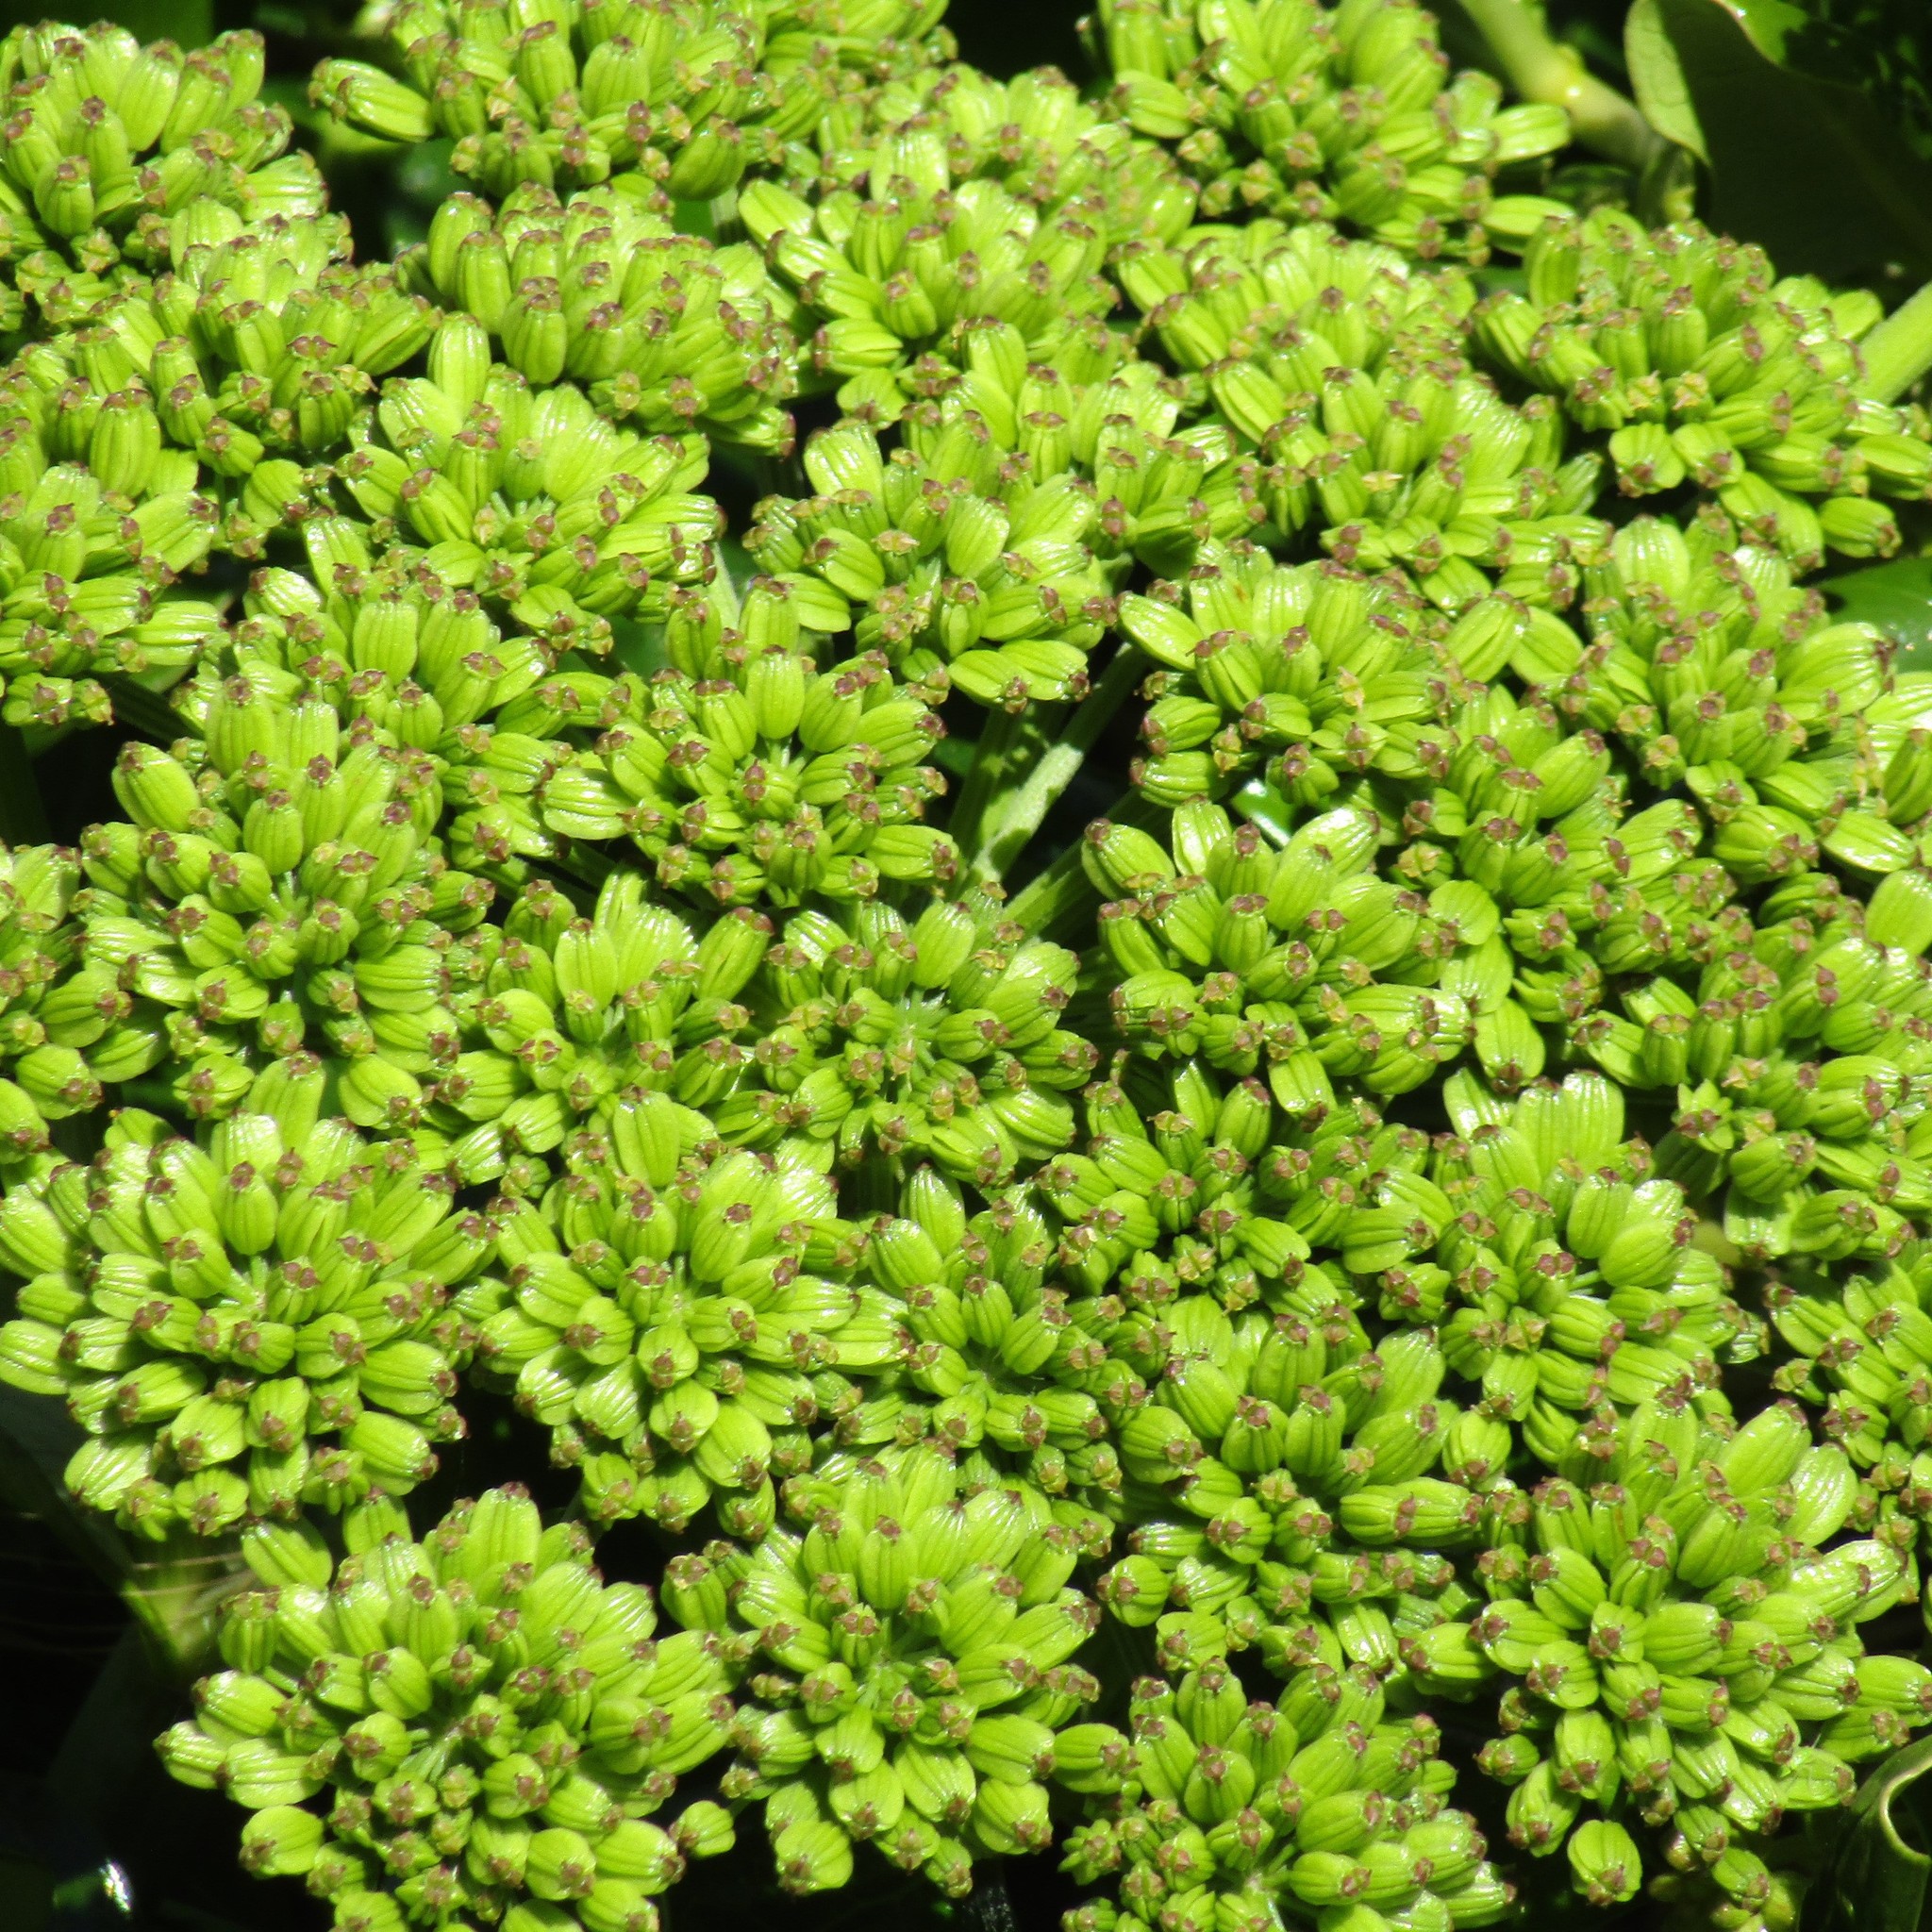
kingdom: Plantae
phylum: Tracheophyta
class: Magnoliopsida
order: Apiales
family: Apiaceae
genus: Angelica
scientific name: Angelica pachycarpa
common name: Portuguese angelica
